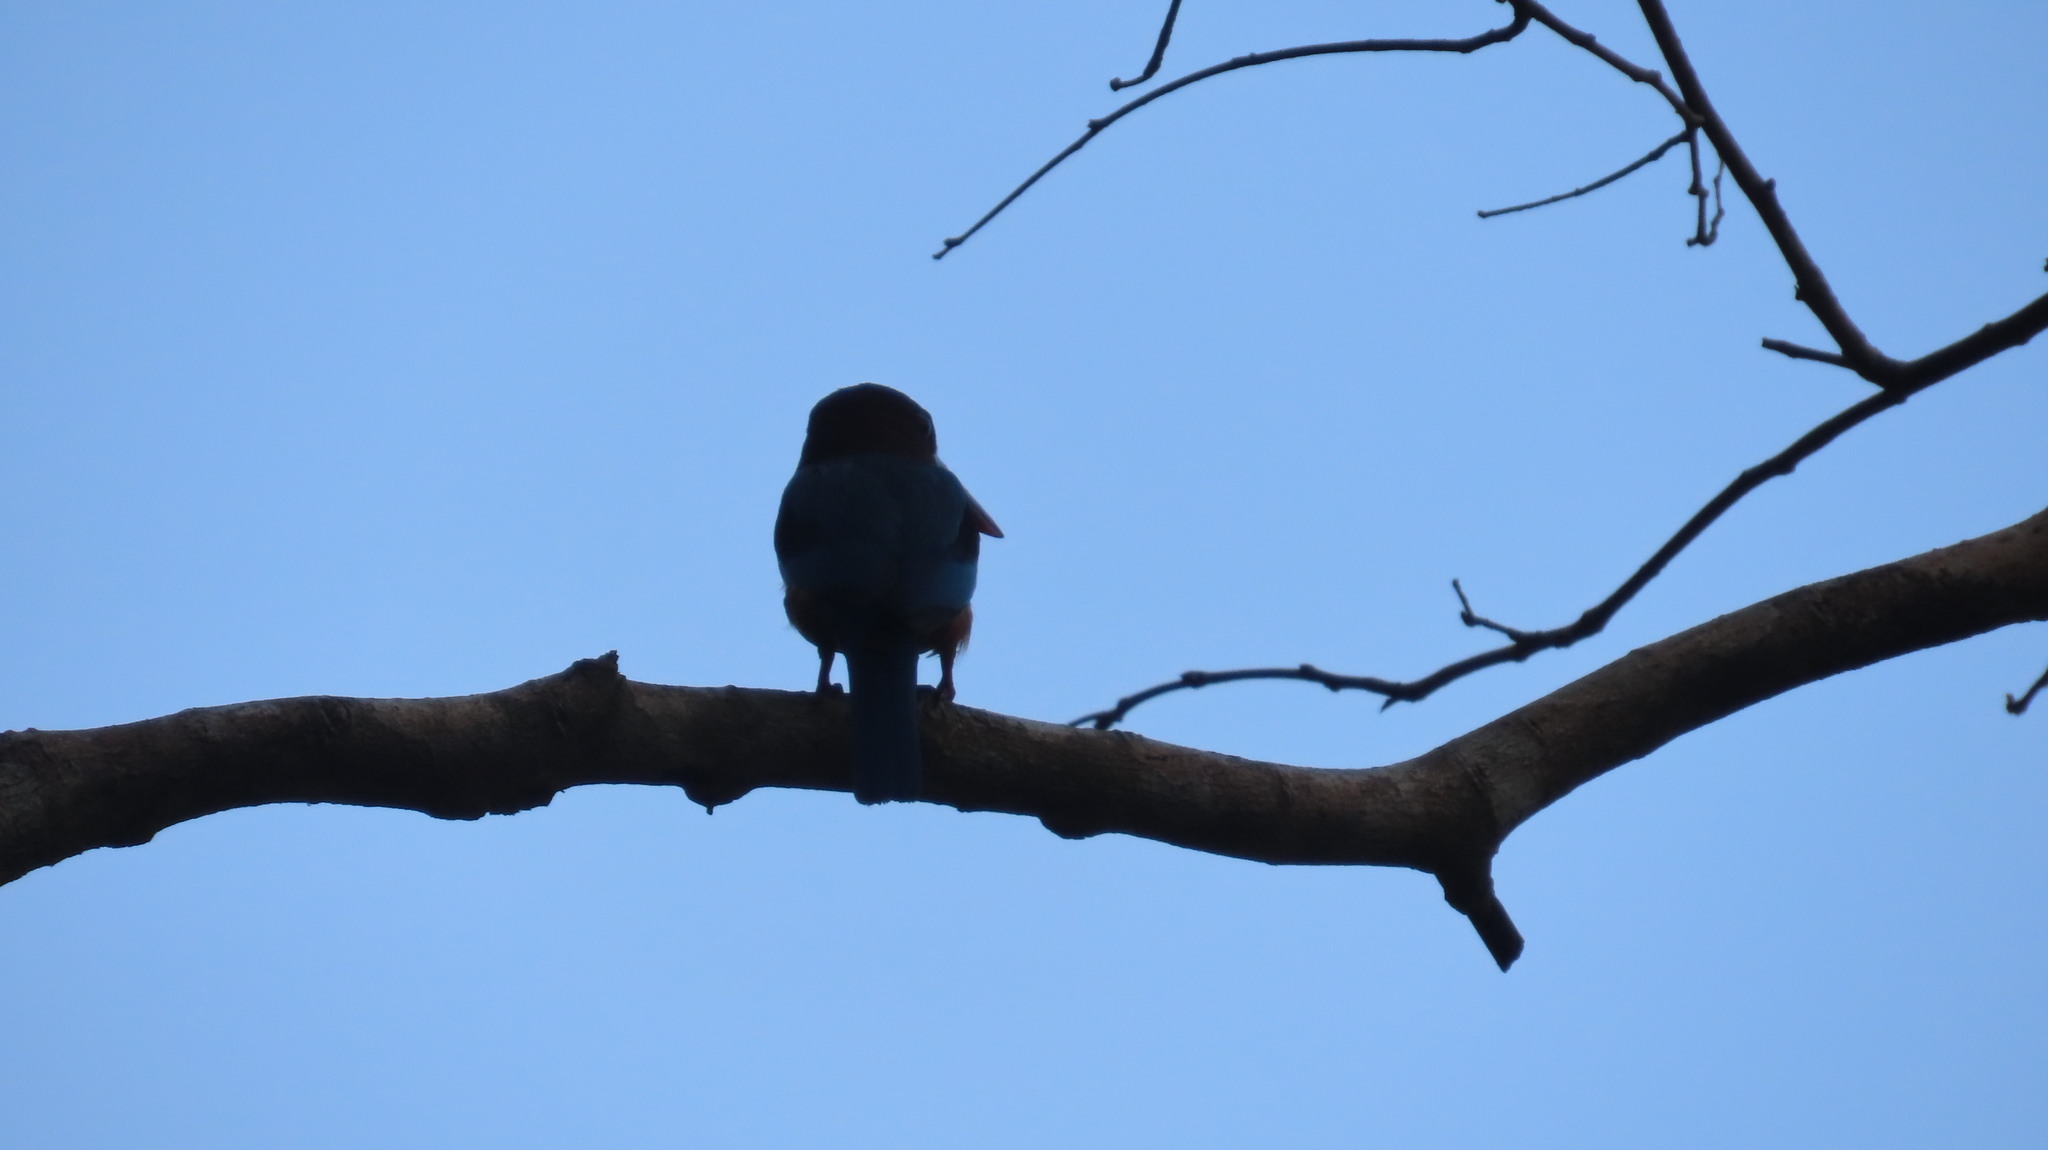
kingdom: Animalia
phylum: Chordata
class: Aves
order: Coraciiformes
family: Alcedinidae
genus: Halcyon
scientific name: Halcyon smyrnensis
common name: White-throated kingfisher
